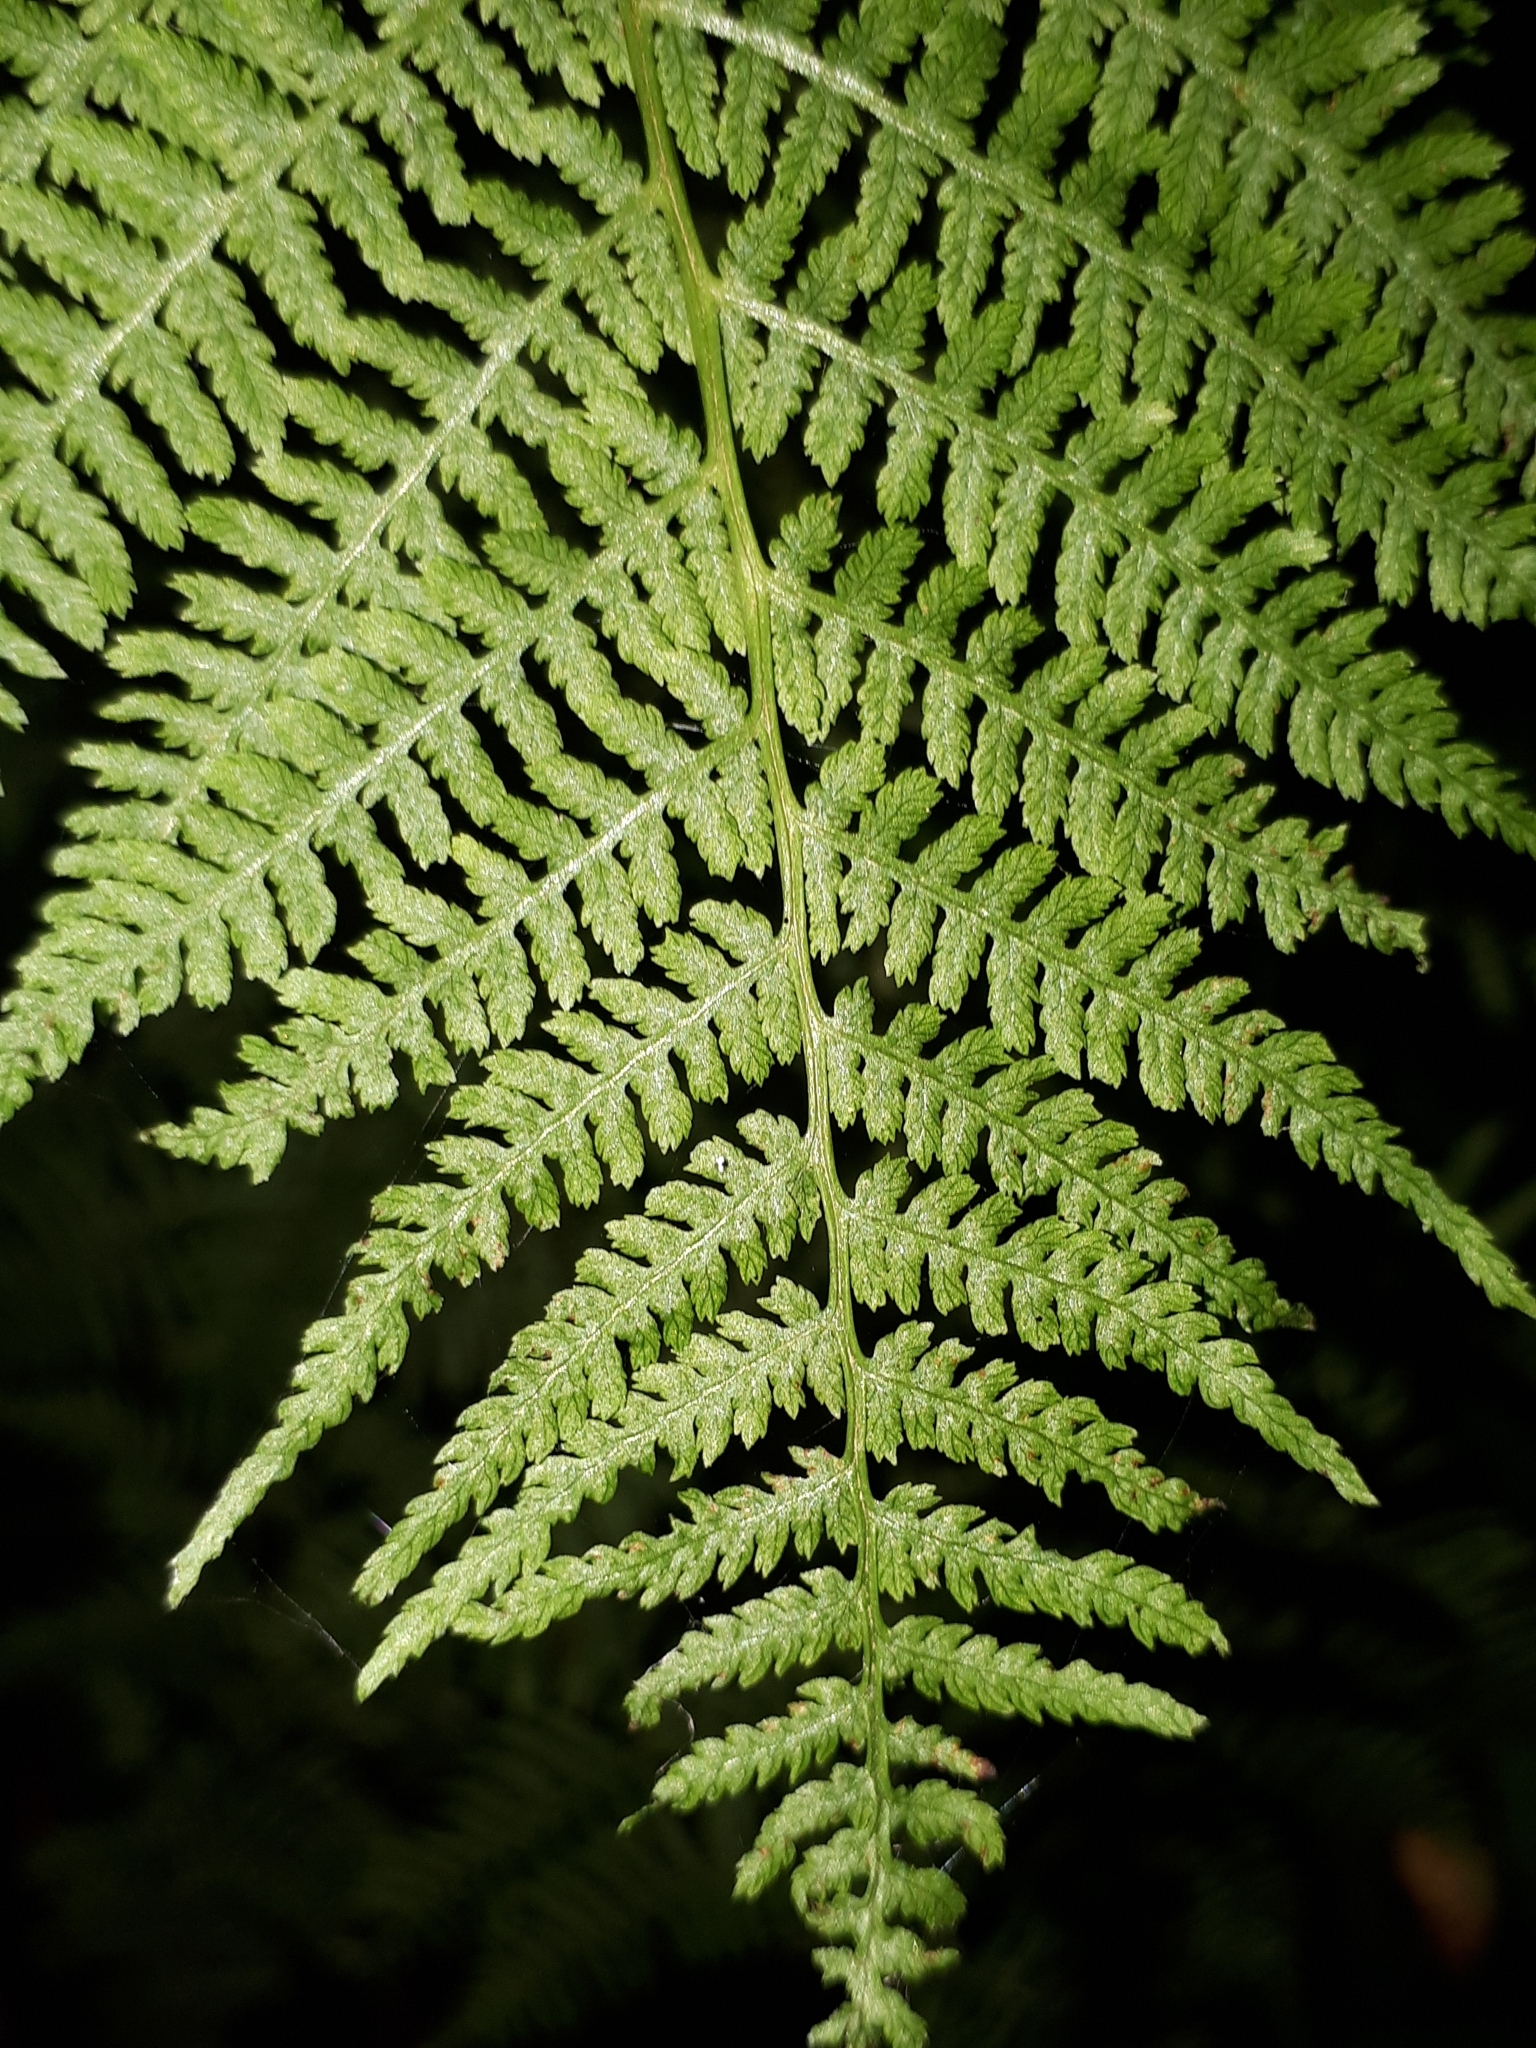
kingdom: Plantae
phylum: Tracheophyta
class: Polypodiopsida
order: Polypodiales
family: Athyriaceae
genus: Athyrium
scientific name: Athyrium filix-femina
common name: Lady fern
